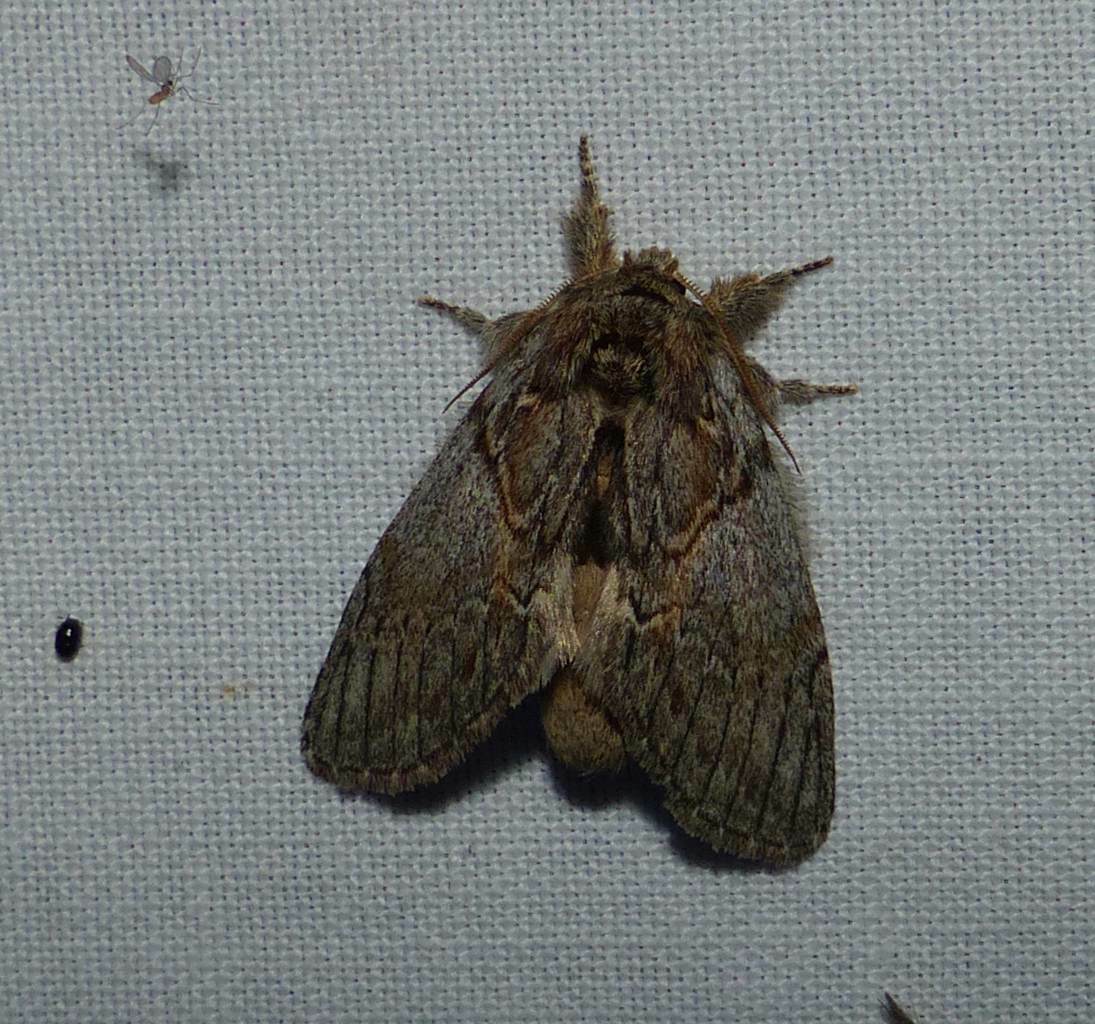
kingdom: Animalia
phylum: Arthropoda
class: Insecta
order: Lepidoptera
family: Notodontidae
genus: Peridea
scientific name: Peridea basitriens
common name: Oval-based prominent
